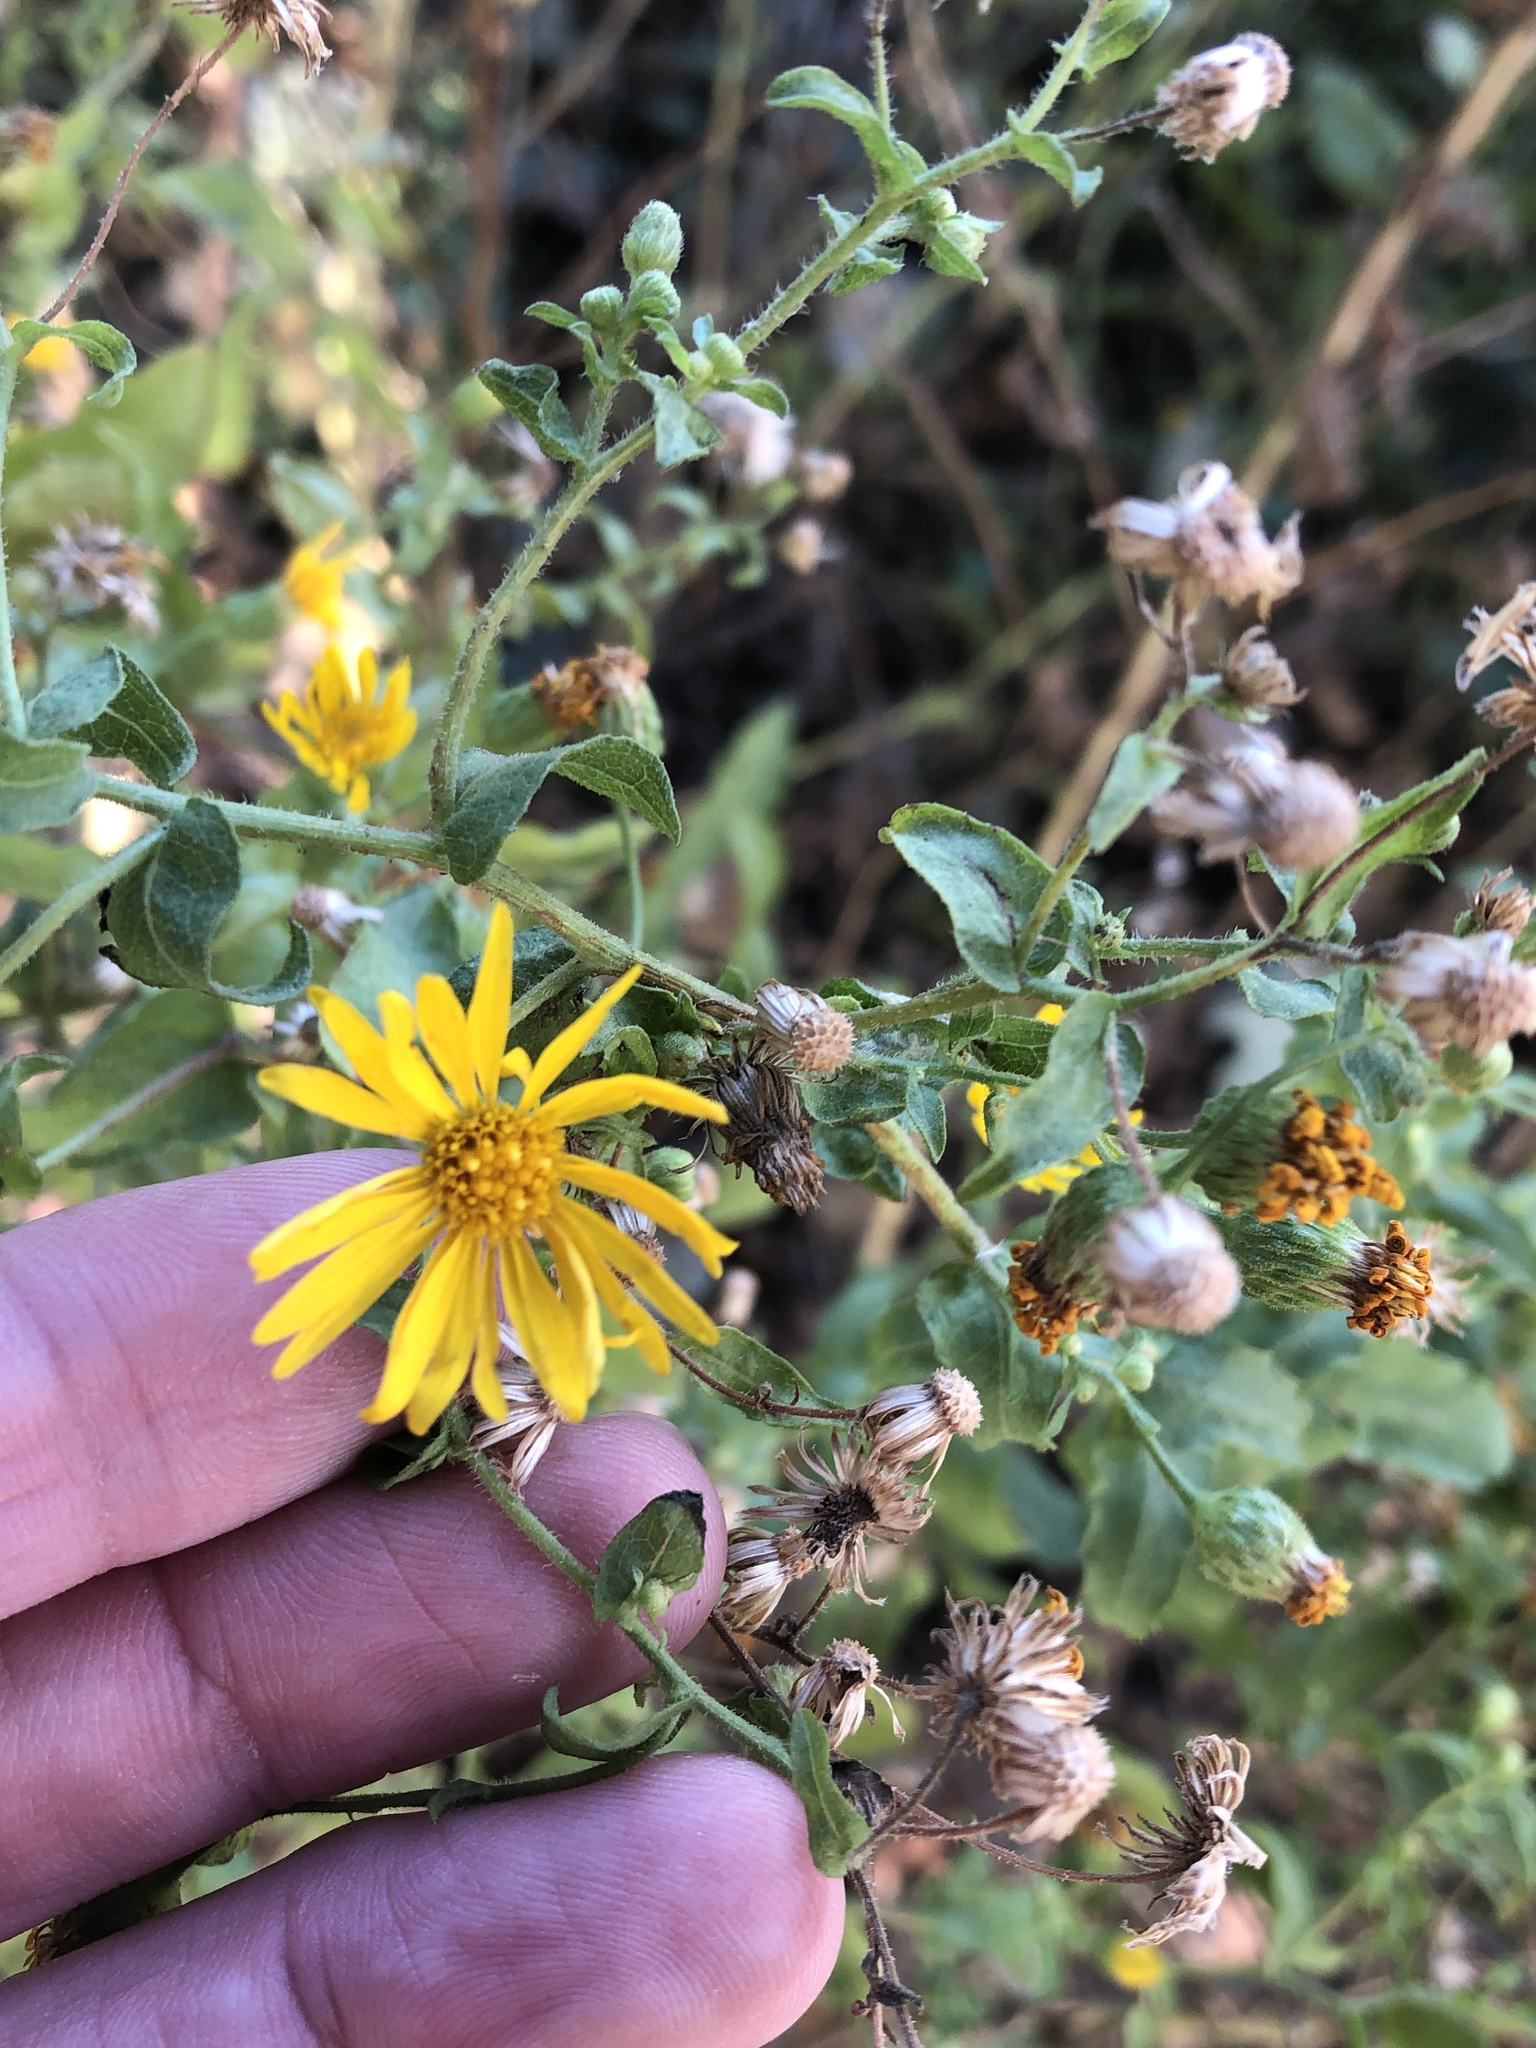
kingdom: Plantae
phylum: Tracheophyta
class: Magnoliopsida
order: Asterales
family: Asteraceae
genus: Heterotheca
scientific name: Heterotheca subaxillaris
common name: Camphorweed
